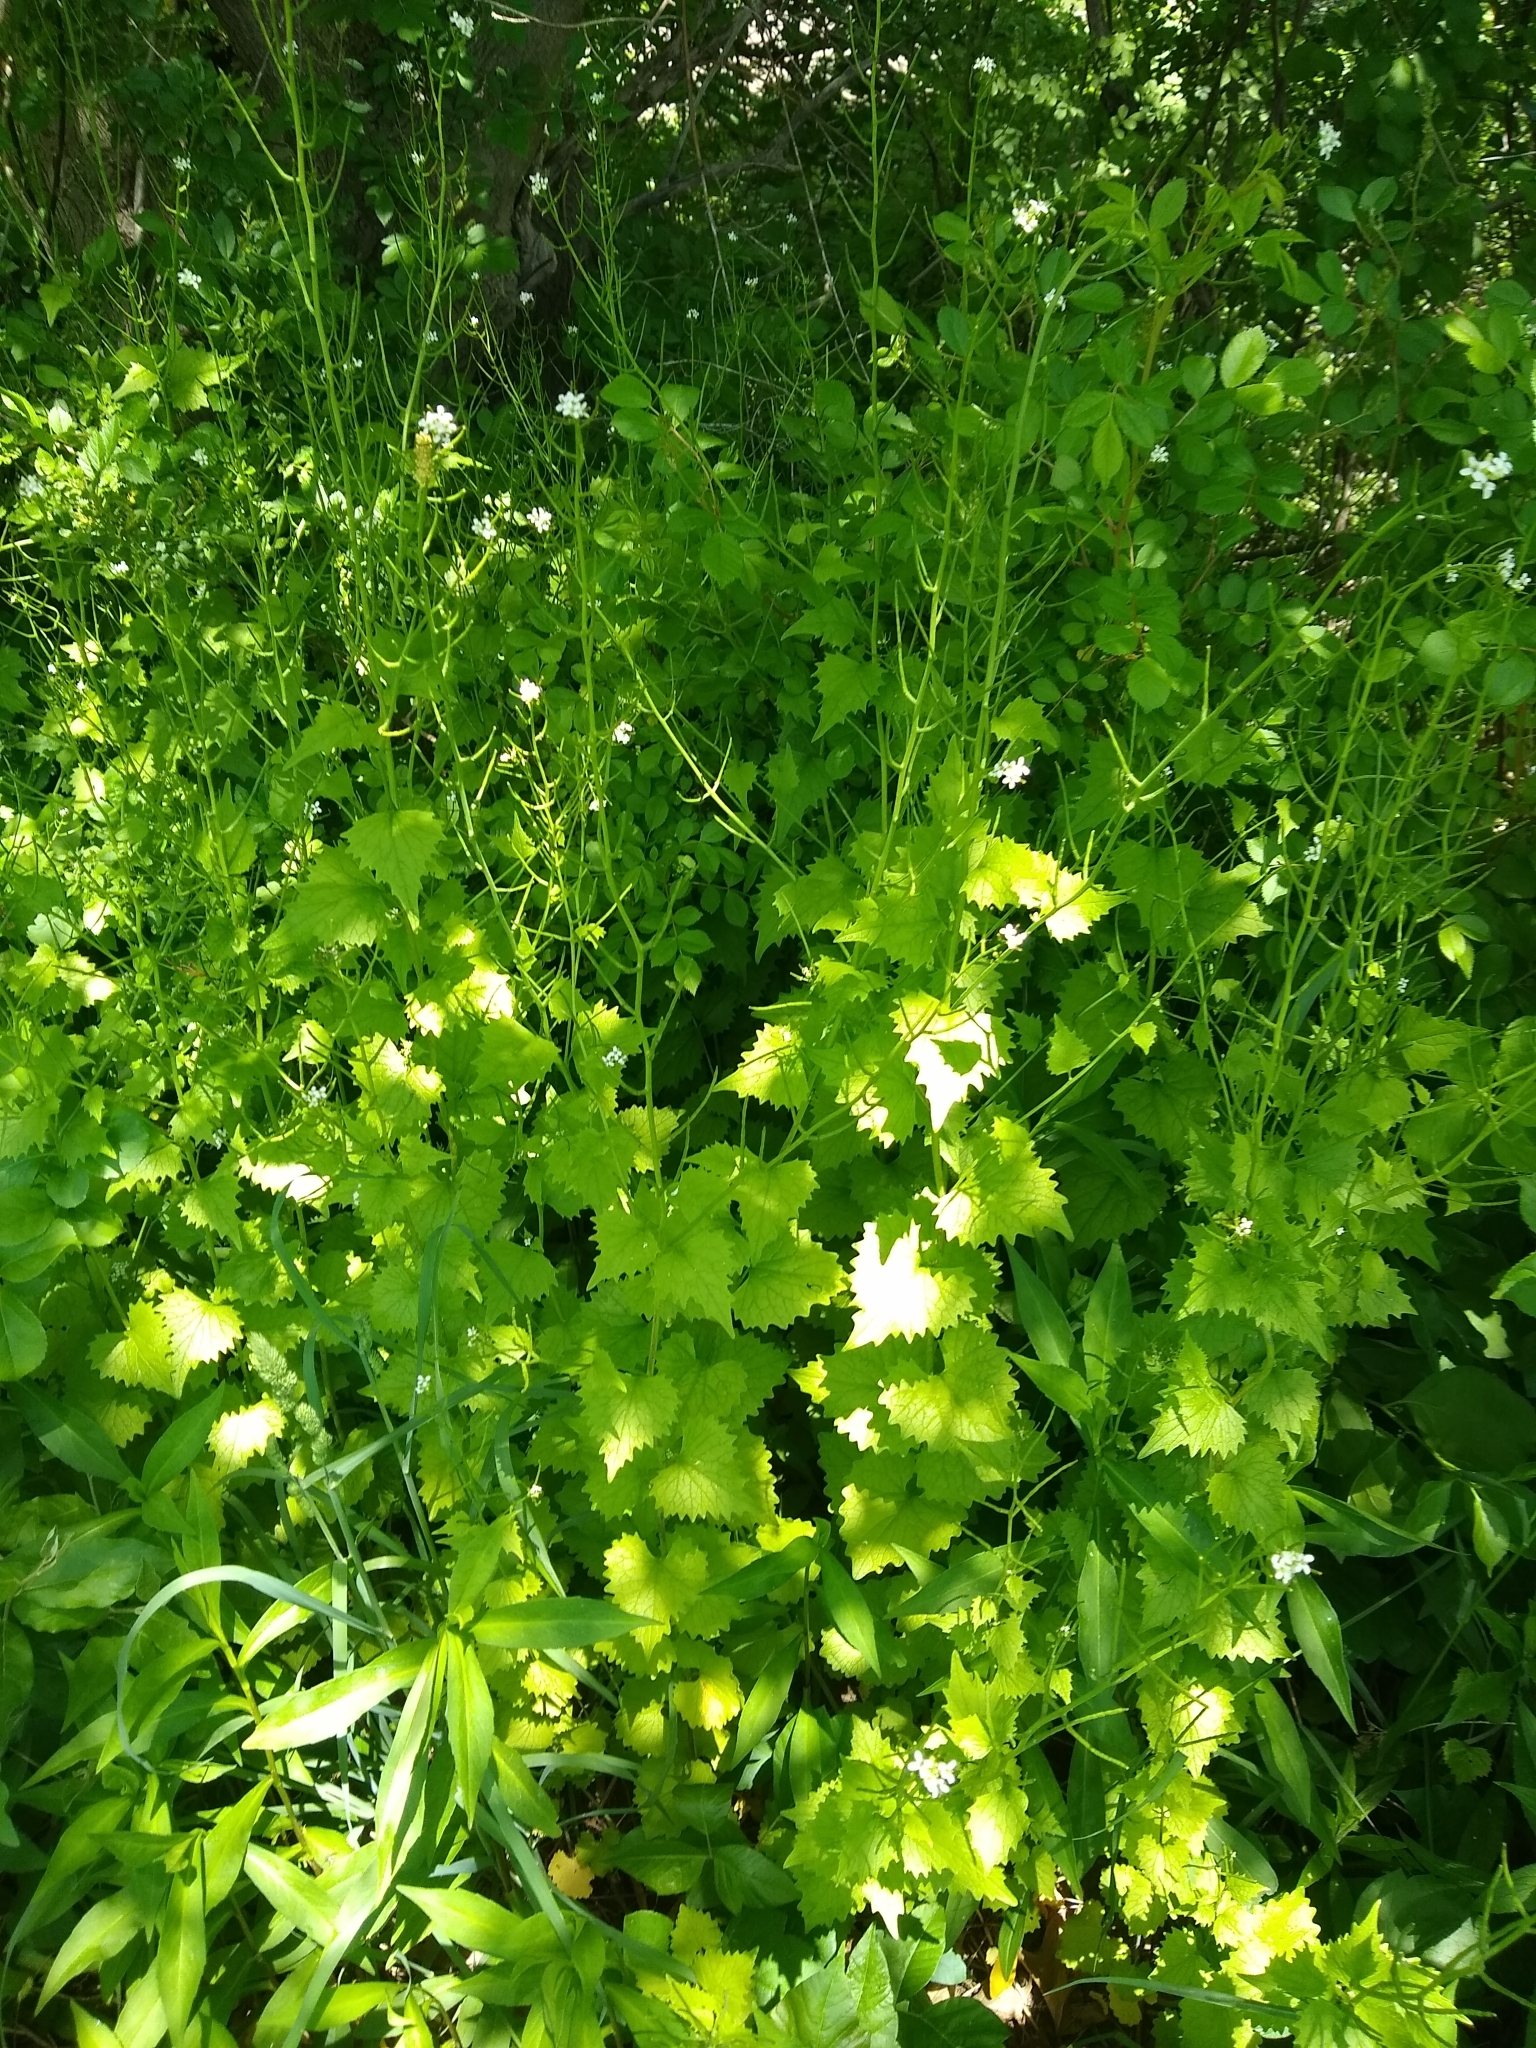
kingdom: Plantae
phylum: Tracheophyta
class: Magnoliopsida
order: Brassicales
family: Brassicaceae
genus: Alliaria
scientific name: Alliaria petiolata
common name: Garlic mustard
